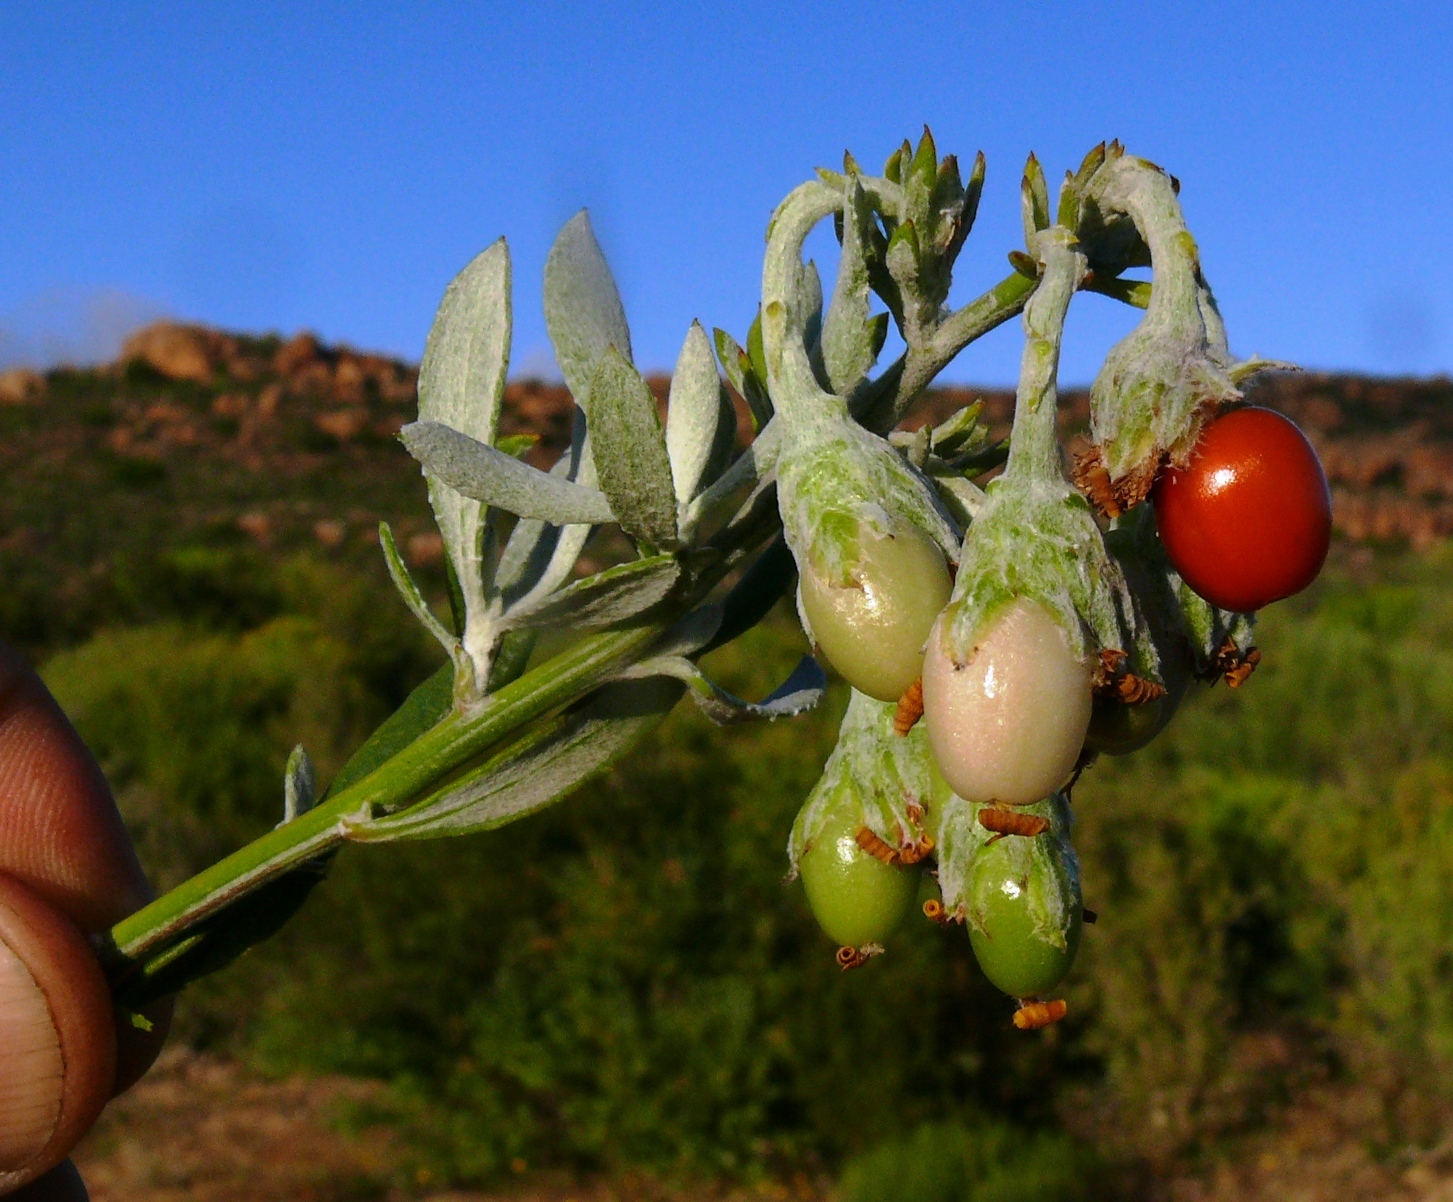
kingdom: Plantae
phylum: Tracheophyta
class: Magnoliopsida
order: Asterales
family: Asteraceae
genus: Osteospermum
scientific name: Osteospermum incanum
